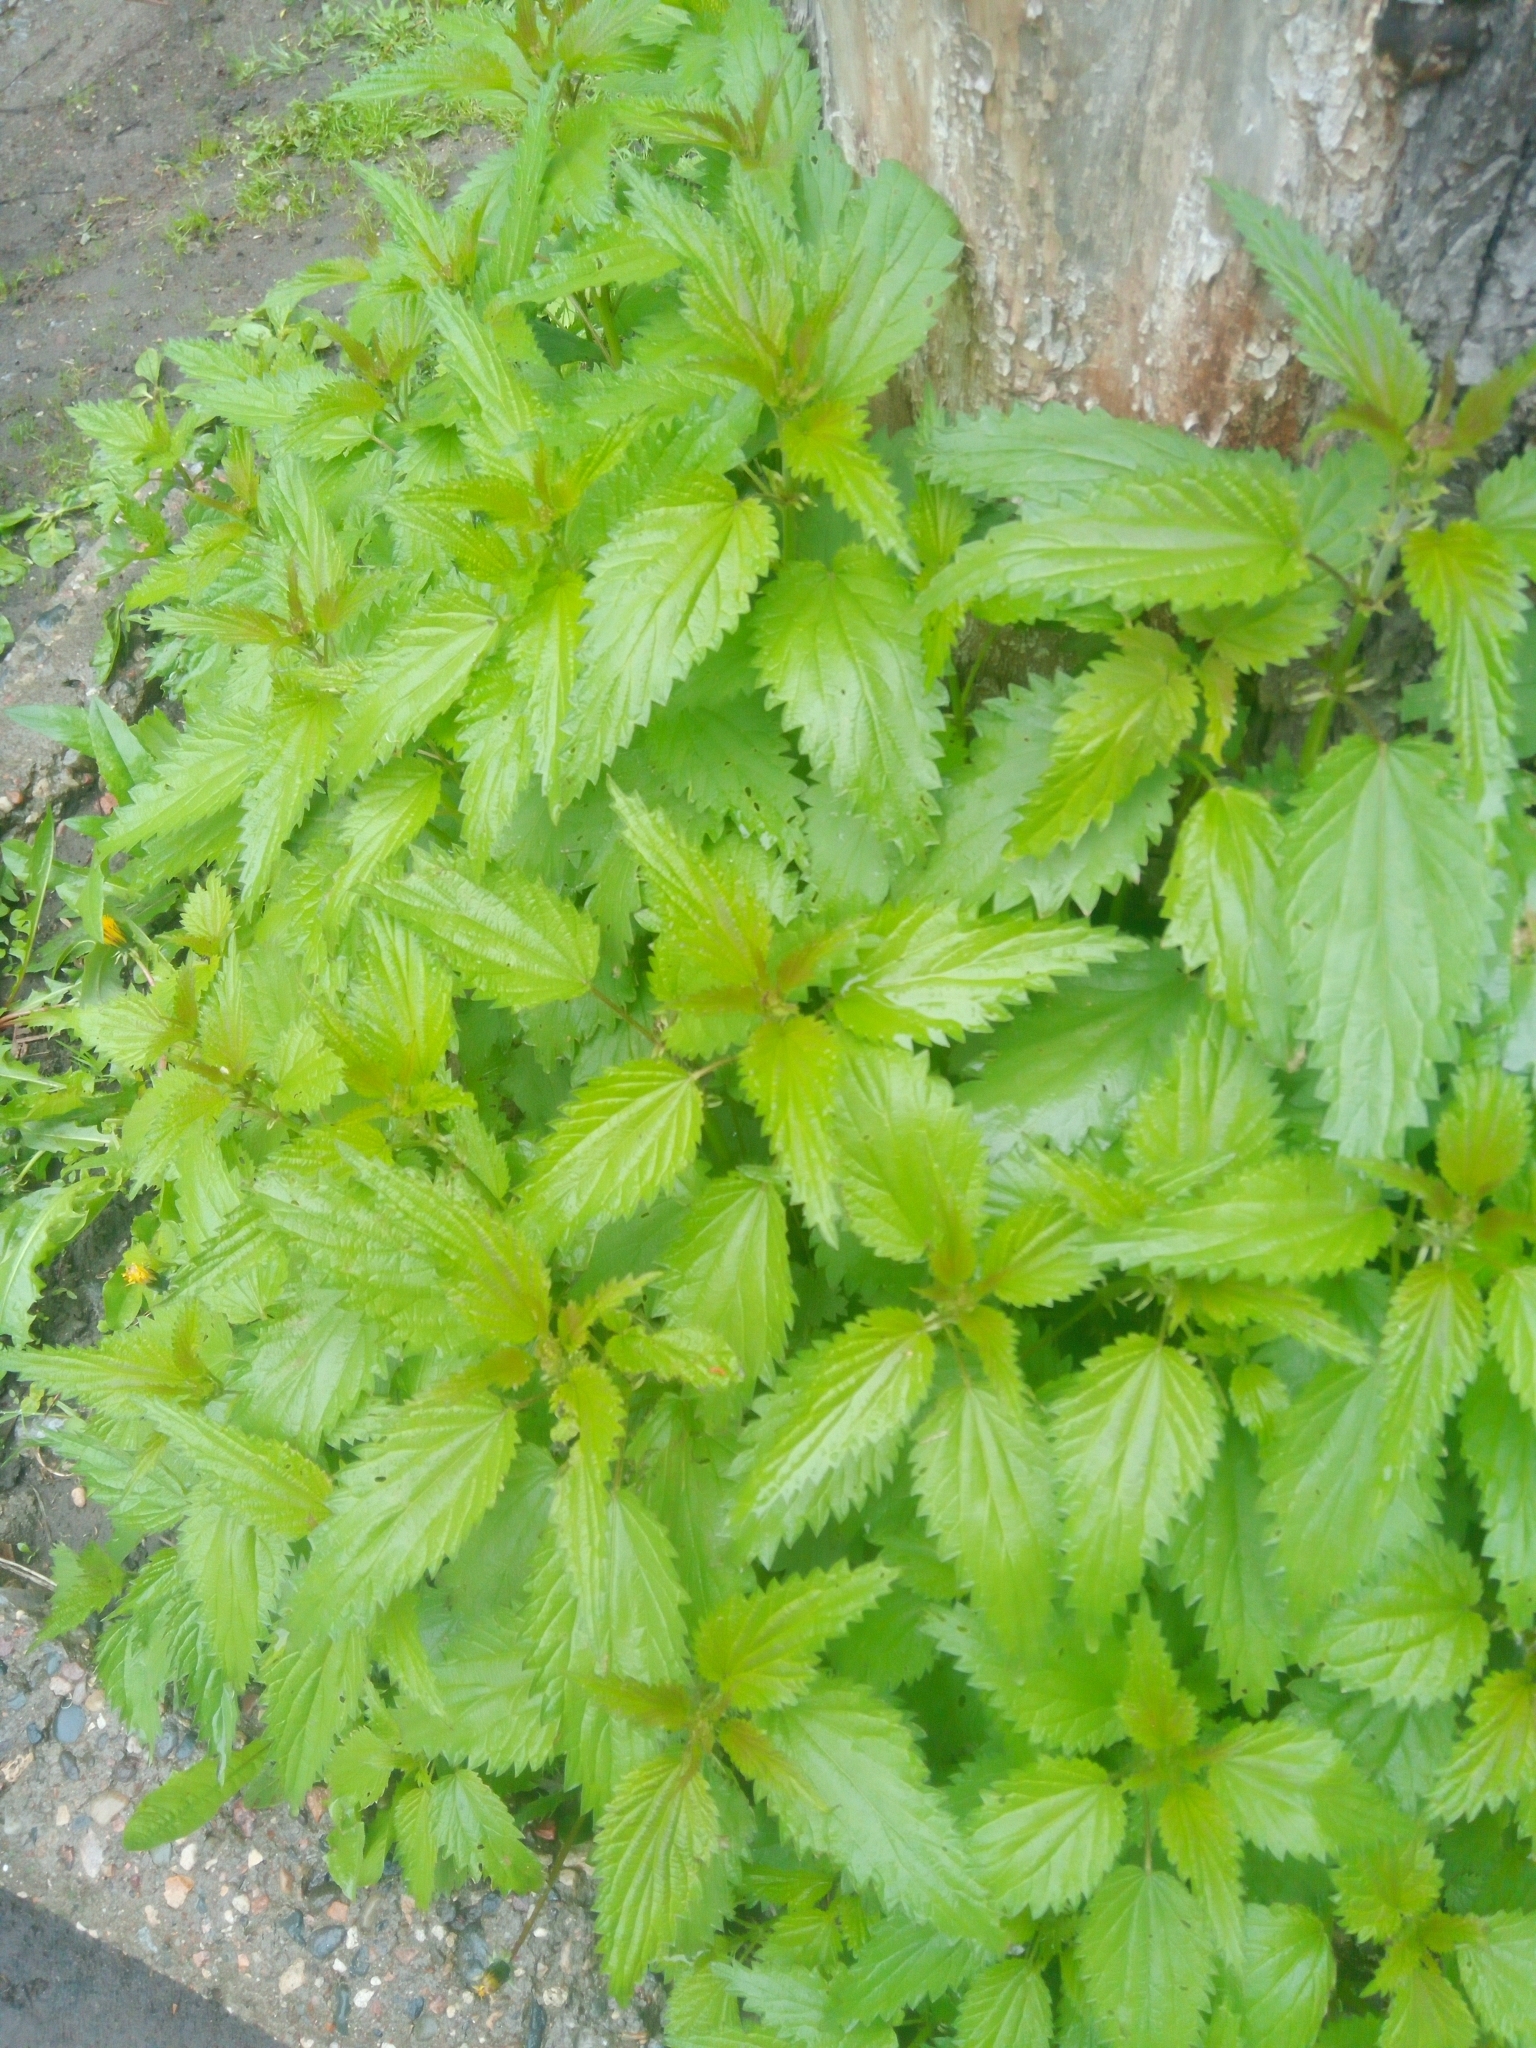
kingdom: Plantae
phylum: Tracheophyta
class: Magnoliopsida
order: Rosales
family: Urticaceae
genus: Urtica
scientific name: Urtica dioica
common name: Common nettle
